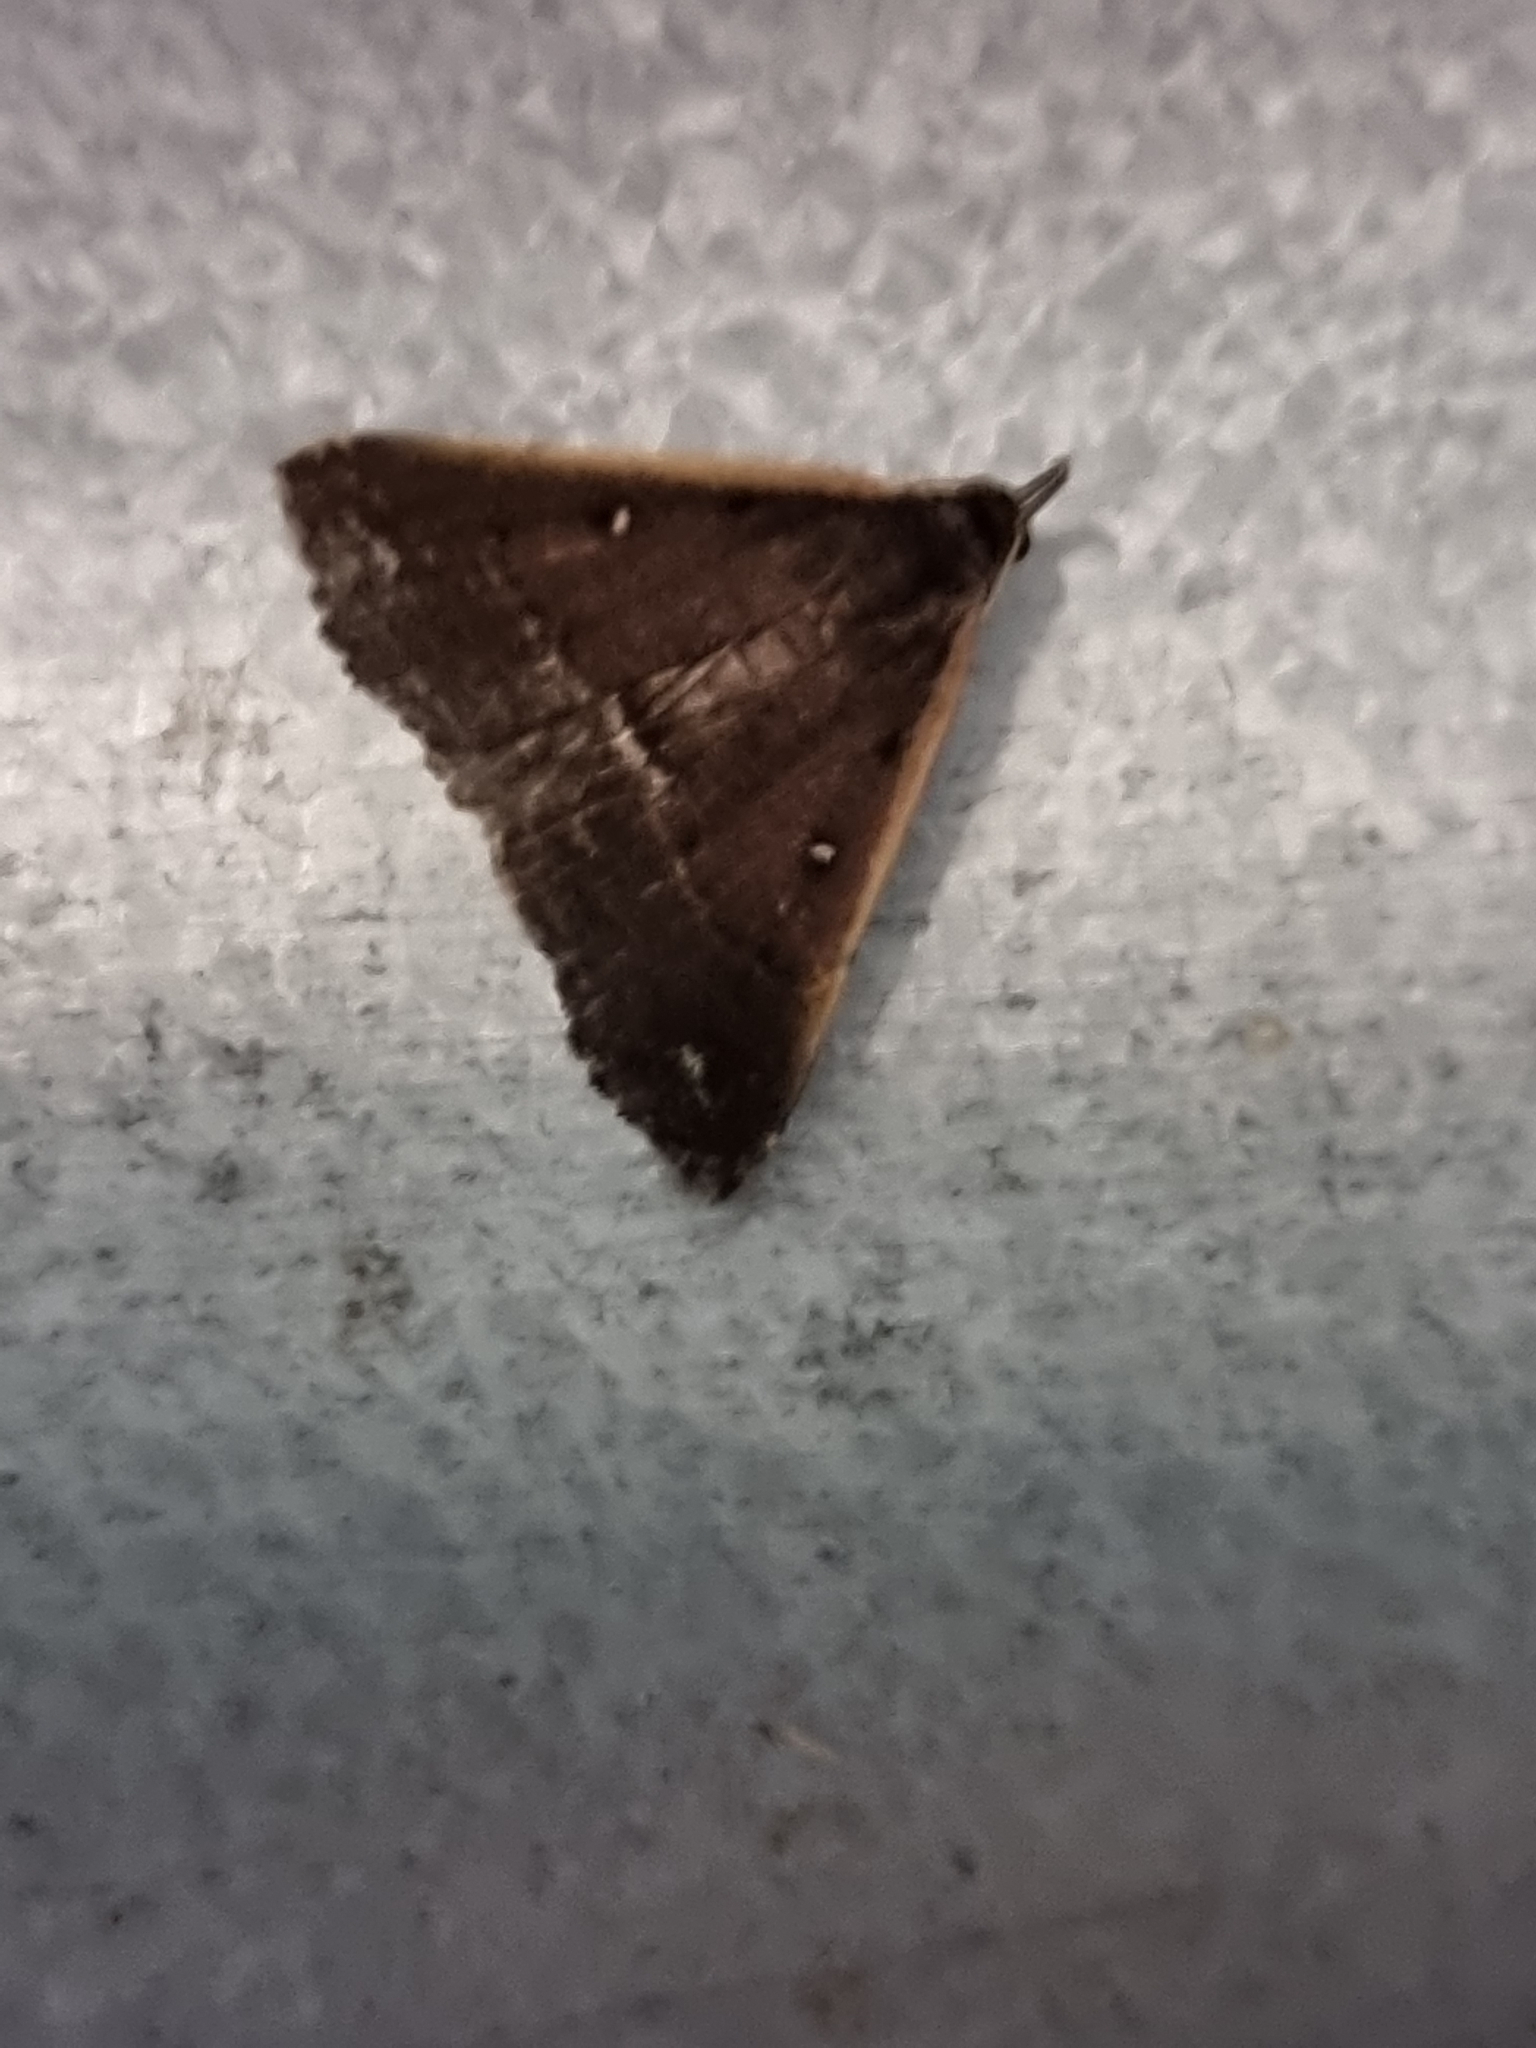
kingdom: Animalia
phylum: Arthropoda
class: Insecta
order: Lepidoptera
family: Erebidae
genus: Adrapsa
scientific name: Adrapsa ablualis
